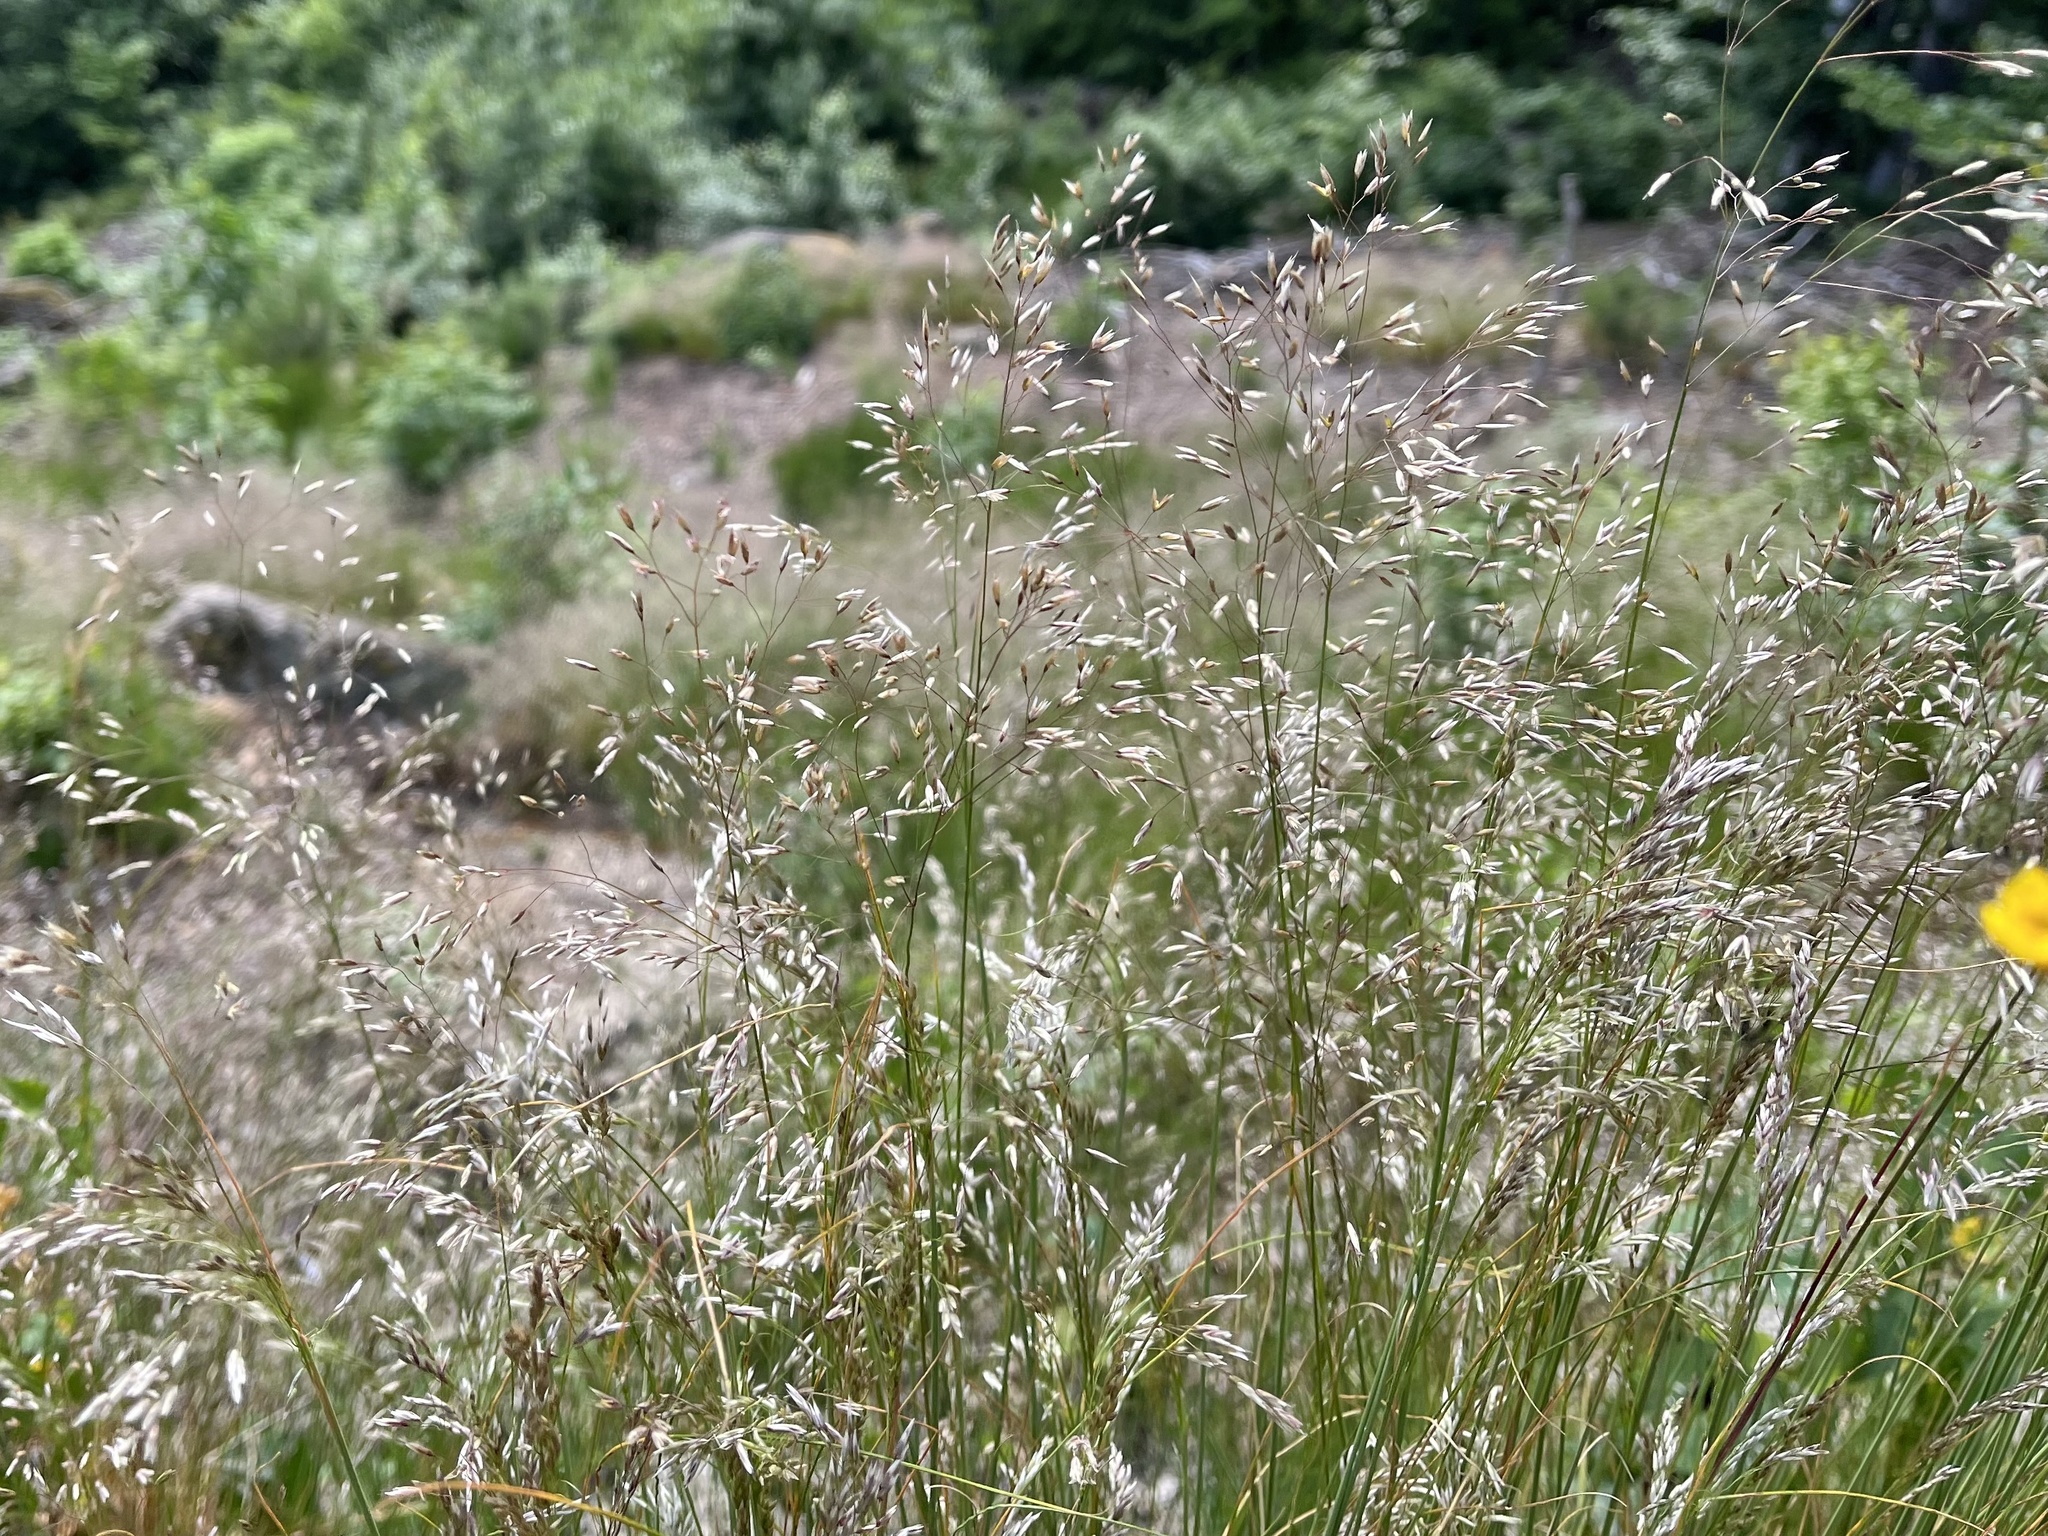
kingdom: Plantae
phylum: Tracheophyta
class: Liliopsida
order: Poales
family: Poaceae
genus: Avenella
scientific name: Avenella flexuosa
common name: Wavy hairgrass
